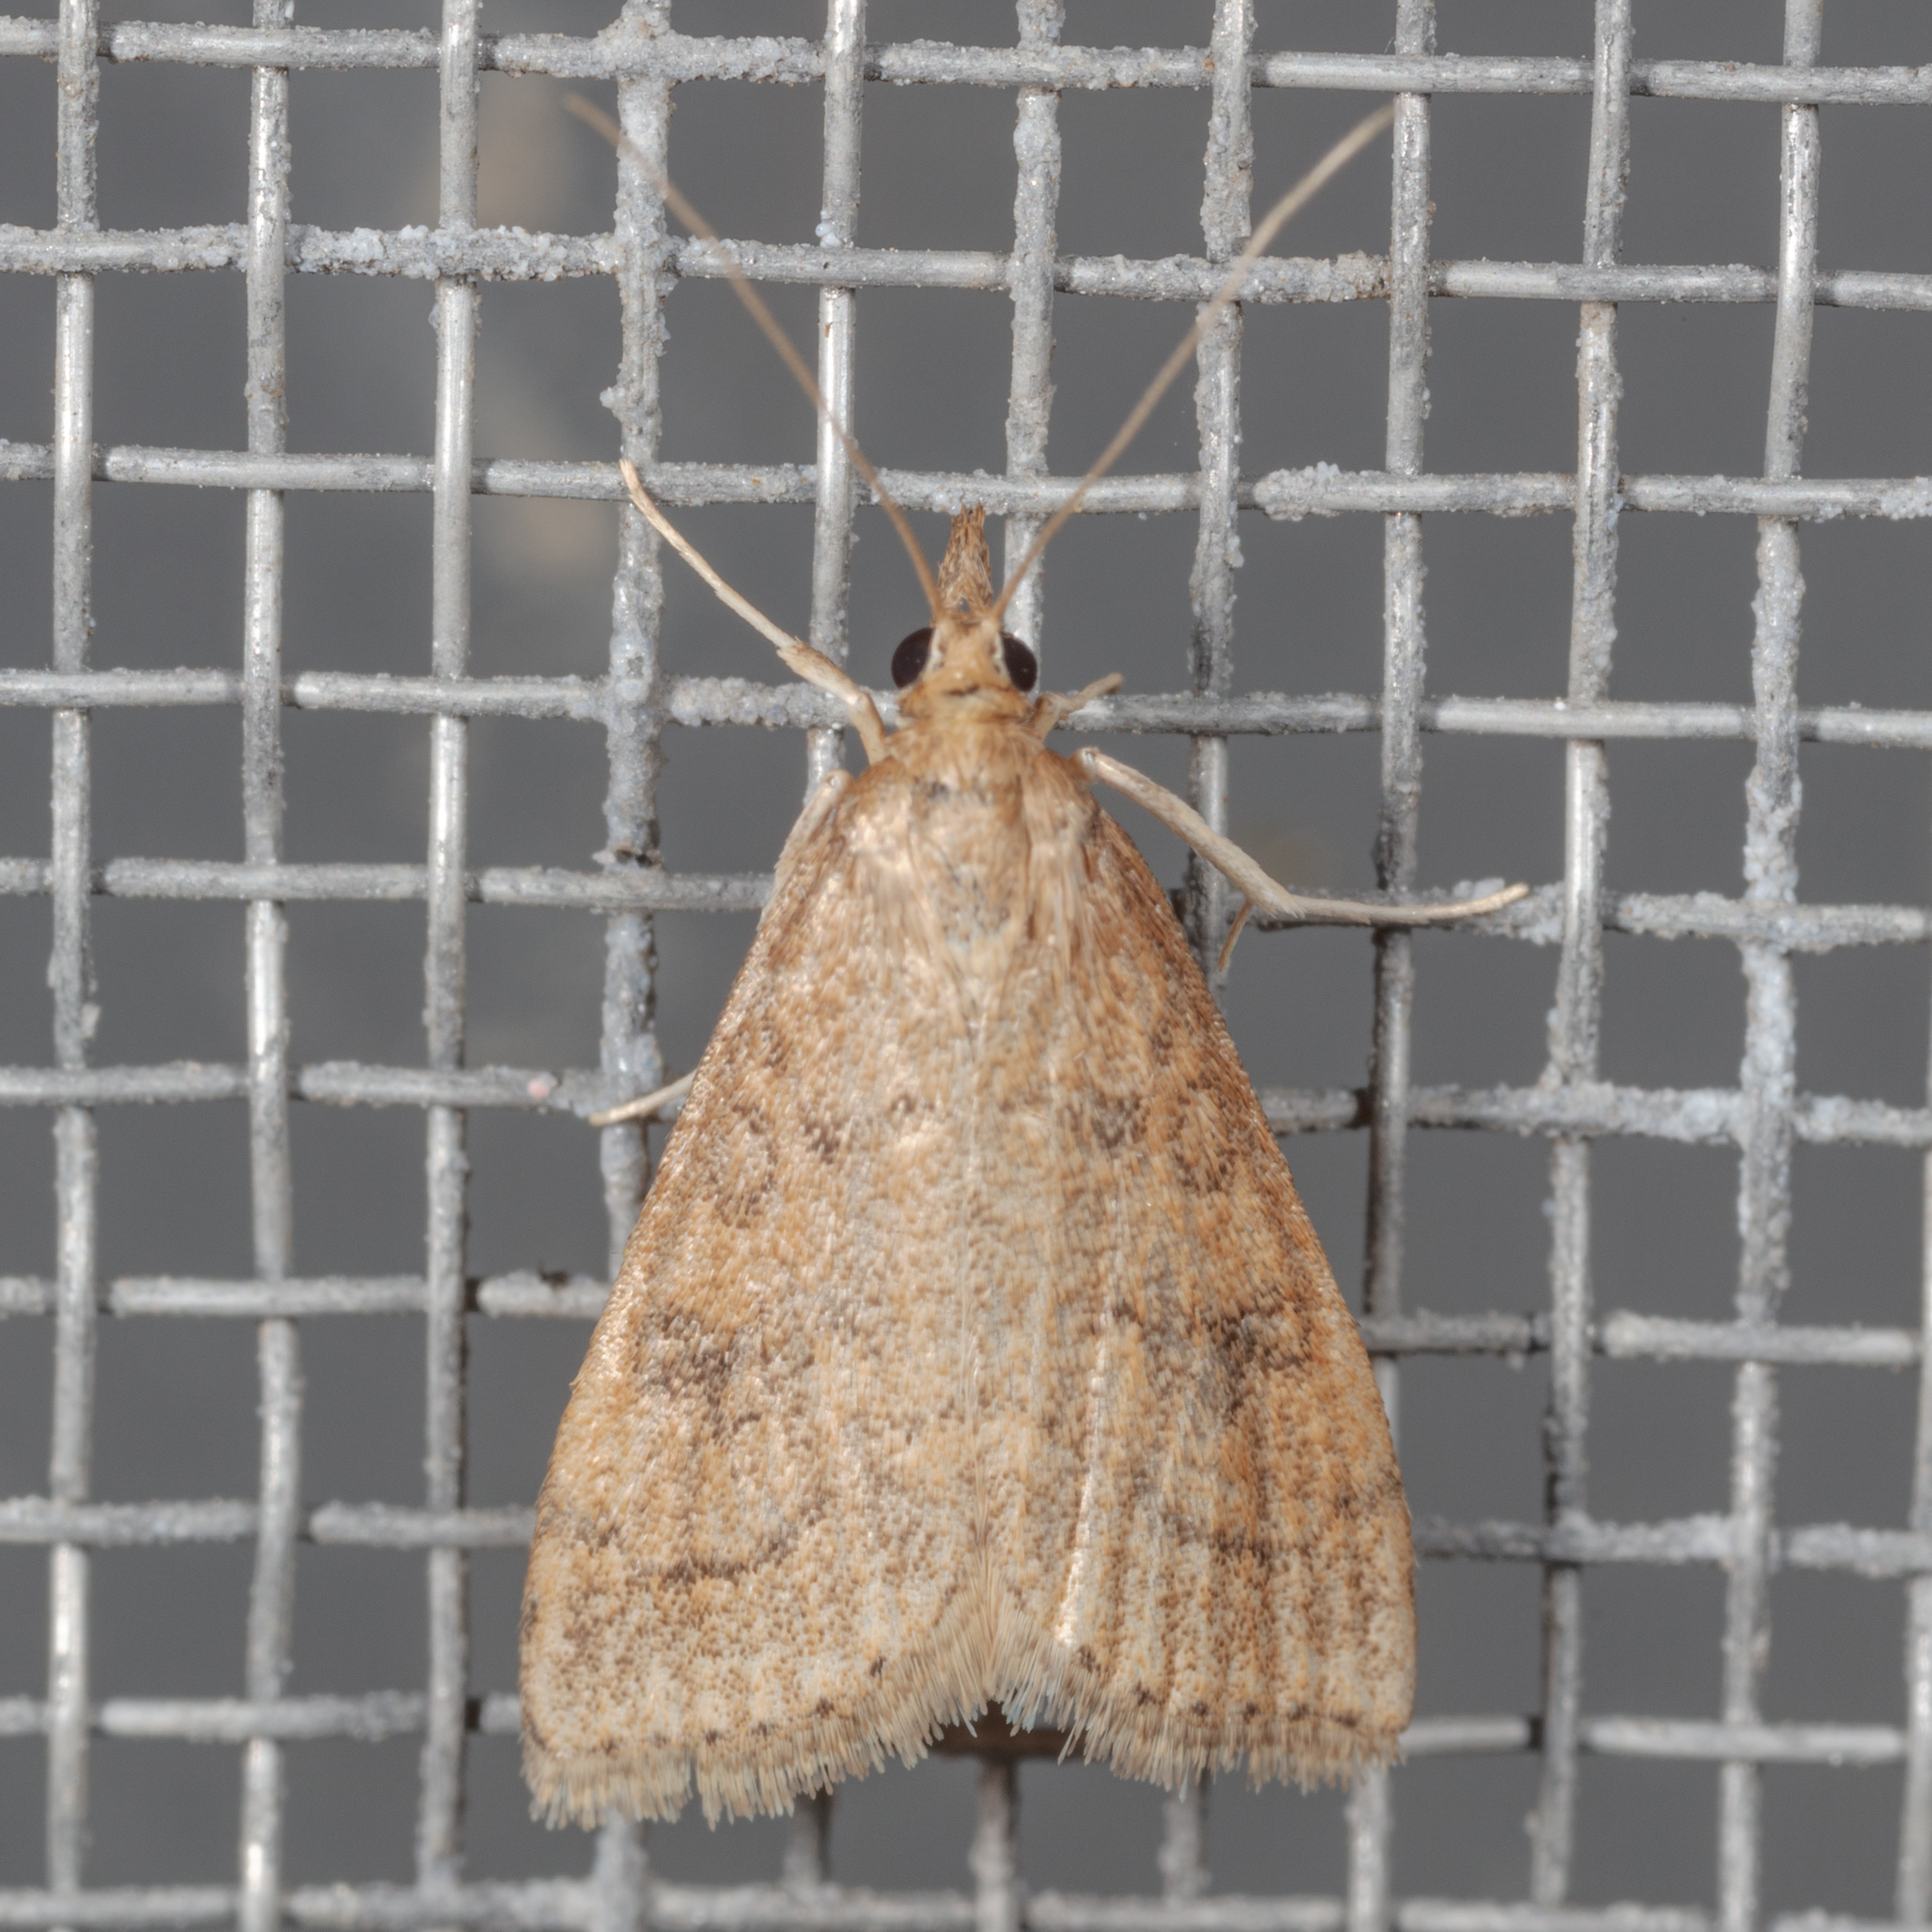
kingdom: Animalia
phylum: Arthropoda
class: Insecta
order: Lepidoptera
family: Crambidae
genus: Udea
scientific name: Udea rubigalis
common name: Celery leaftier moth
